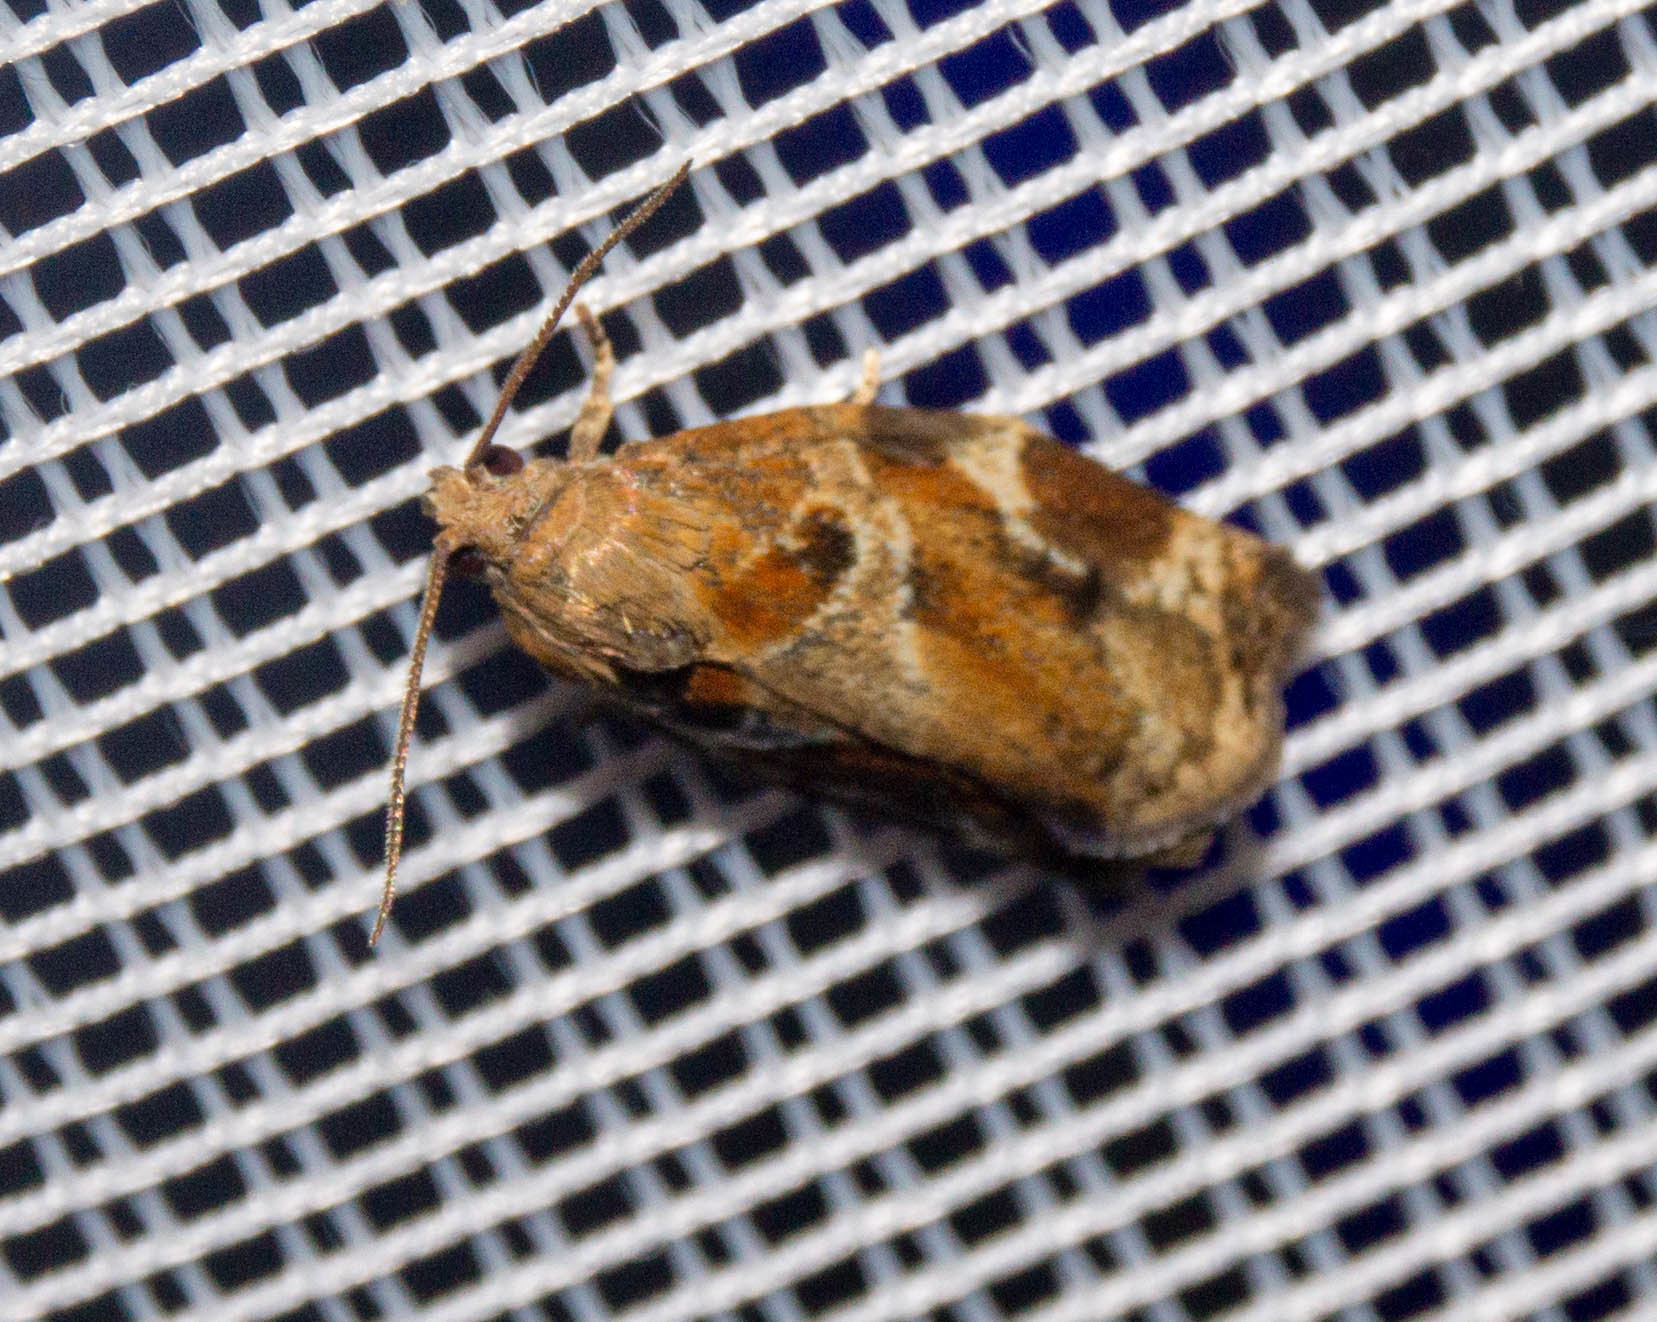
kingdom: Animalia
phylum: Arthropoda
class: Insecta
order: Lepidoptera
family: Tortricidae
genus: Archips
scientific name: Archips xylosteana
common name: Variegated golden tortrix
